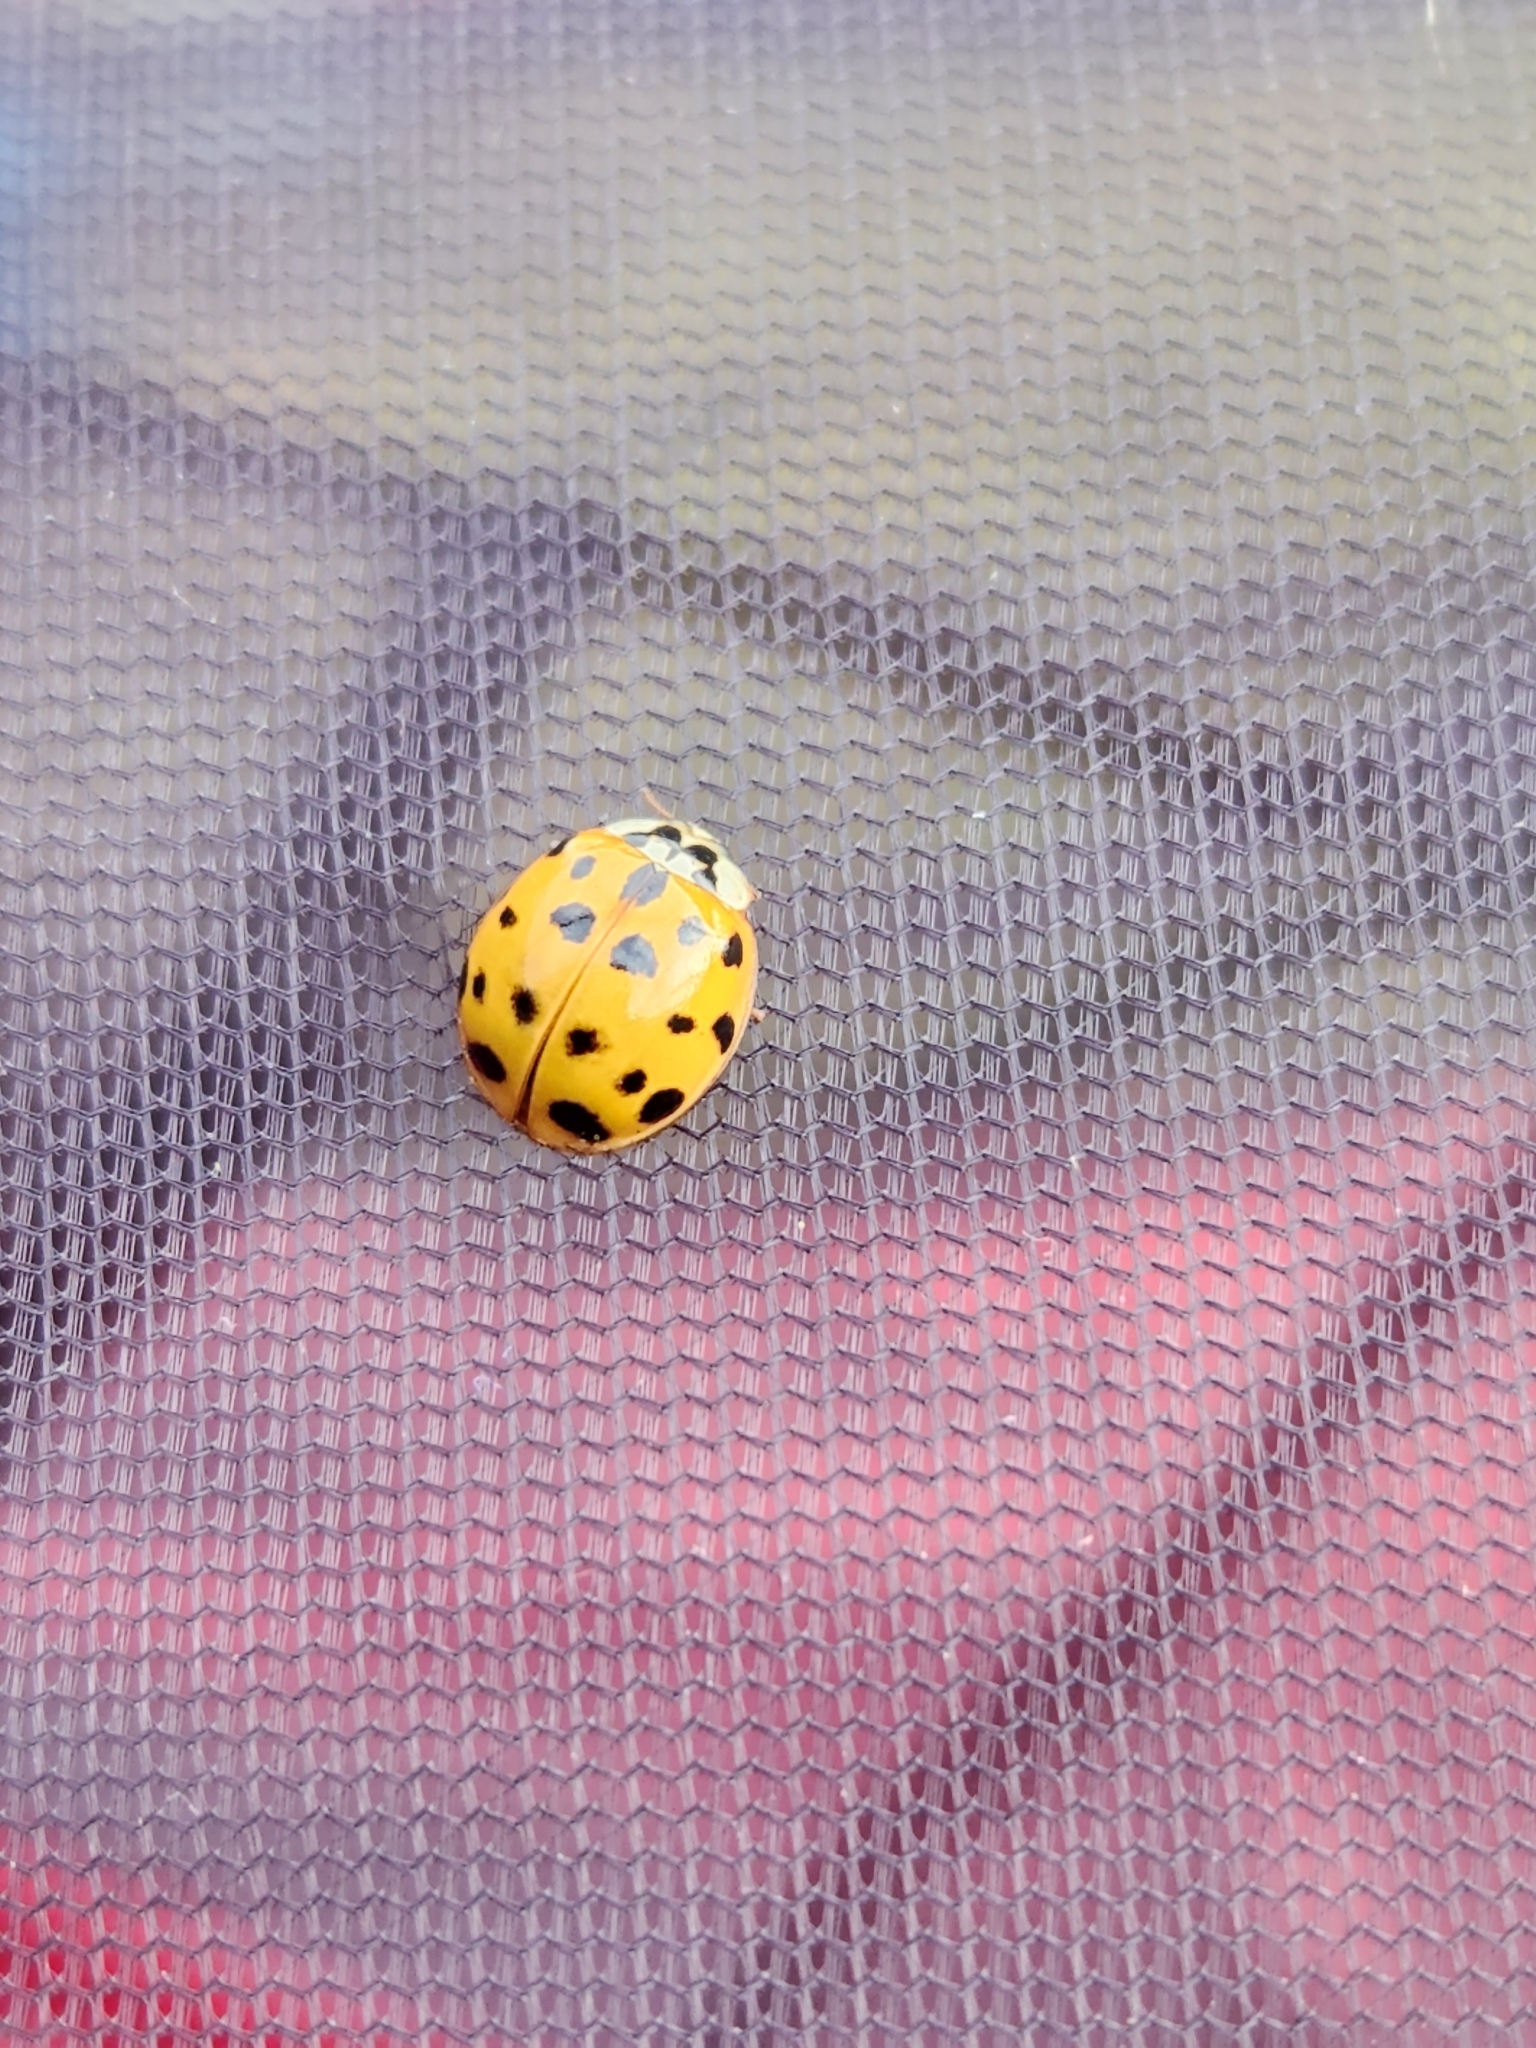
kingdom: Animalia
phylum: Arthropoda
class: Insecta
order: Coleoptera
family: Coccinellidae
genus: Harmonia
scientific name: Harmonia axyridis
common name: Harlequin ladybird
